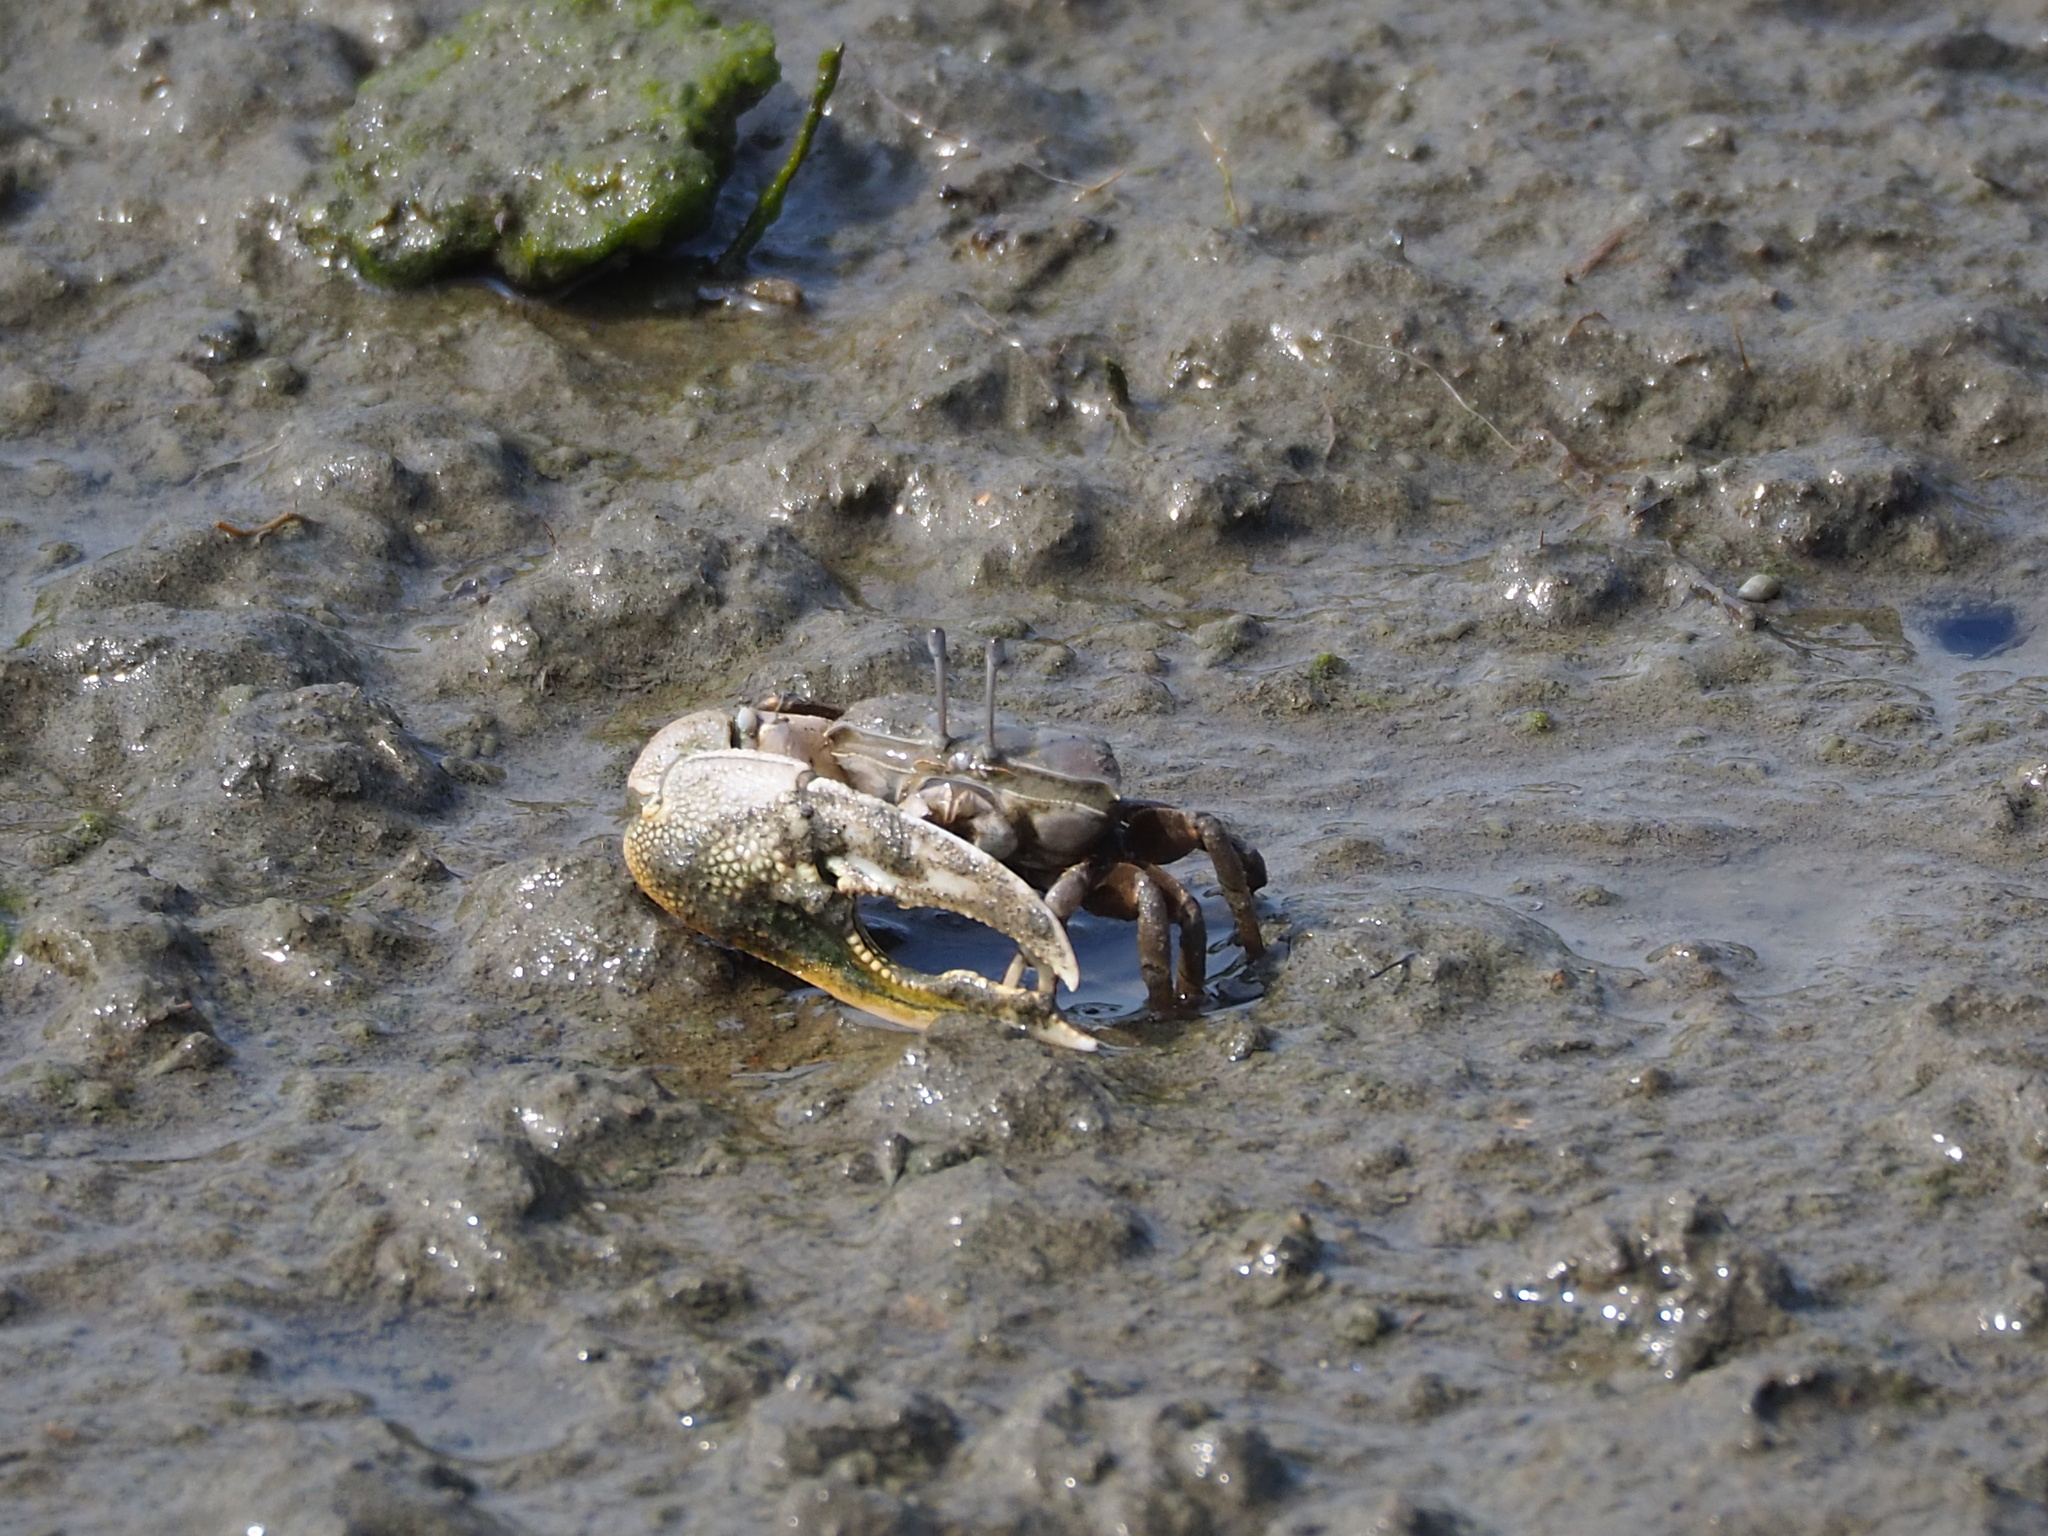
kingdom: Animalia
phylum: Arthropoda
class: Malacostraca
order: Decapoda
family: Ocypodidae
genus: Gelasimus
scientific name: Gelasimus borealis
